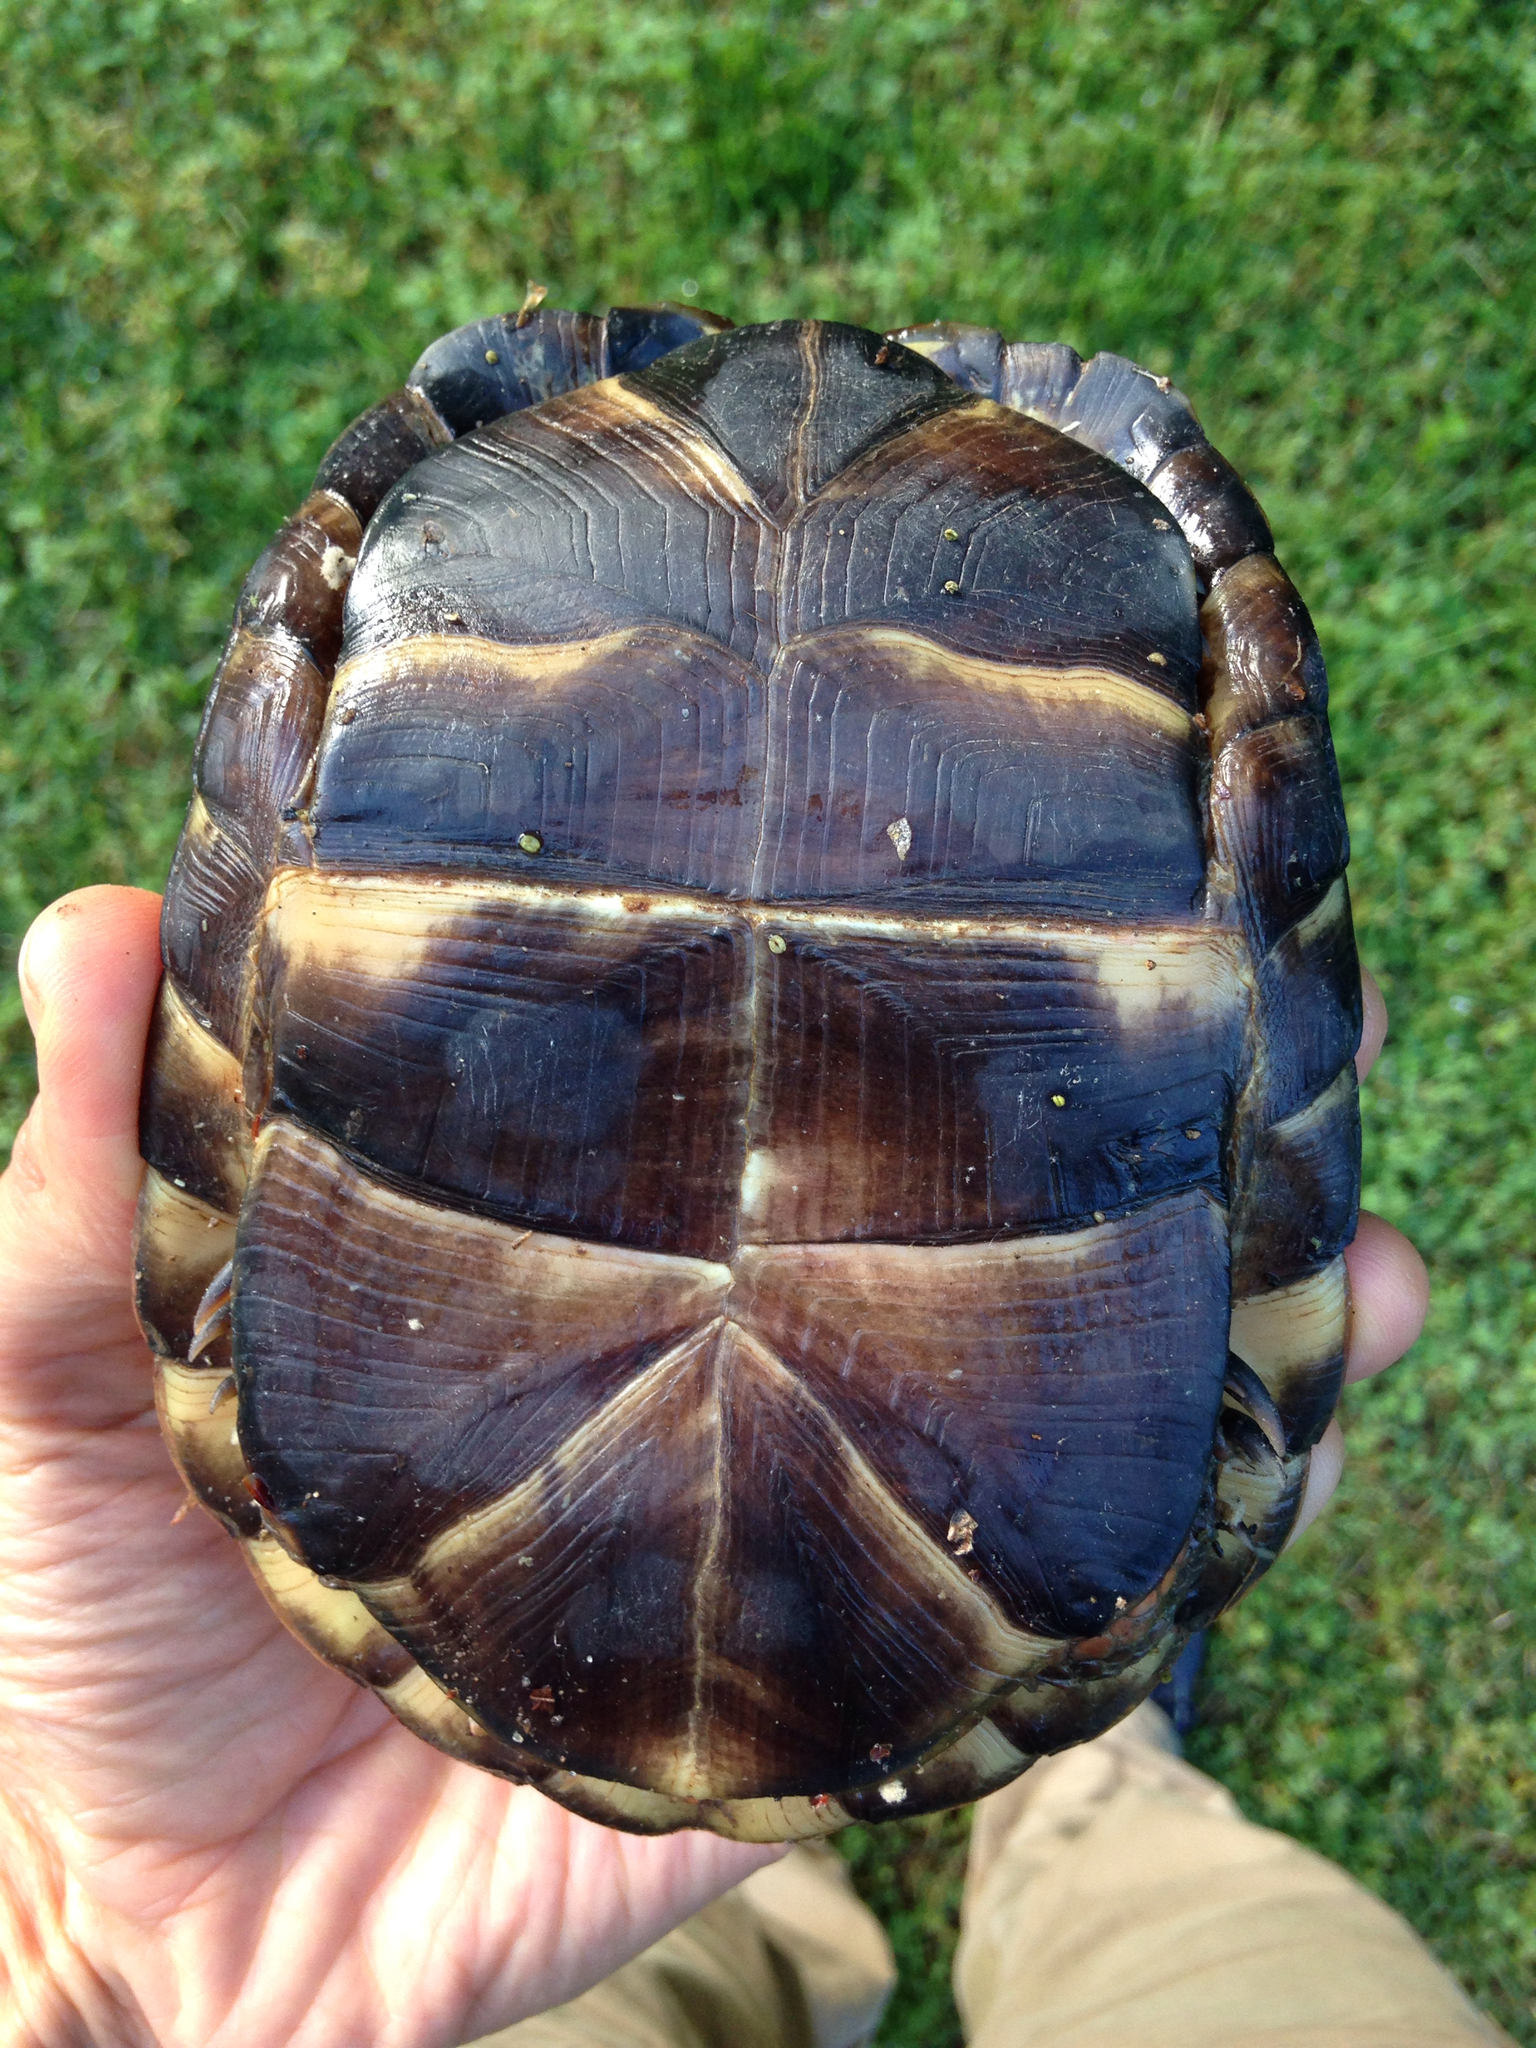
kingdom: Animalia
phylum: Chordata
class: Testudines
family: Emydidae
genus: Terrapene
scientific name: Terrapene carolina
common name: Common box turtle
